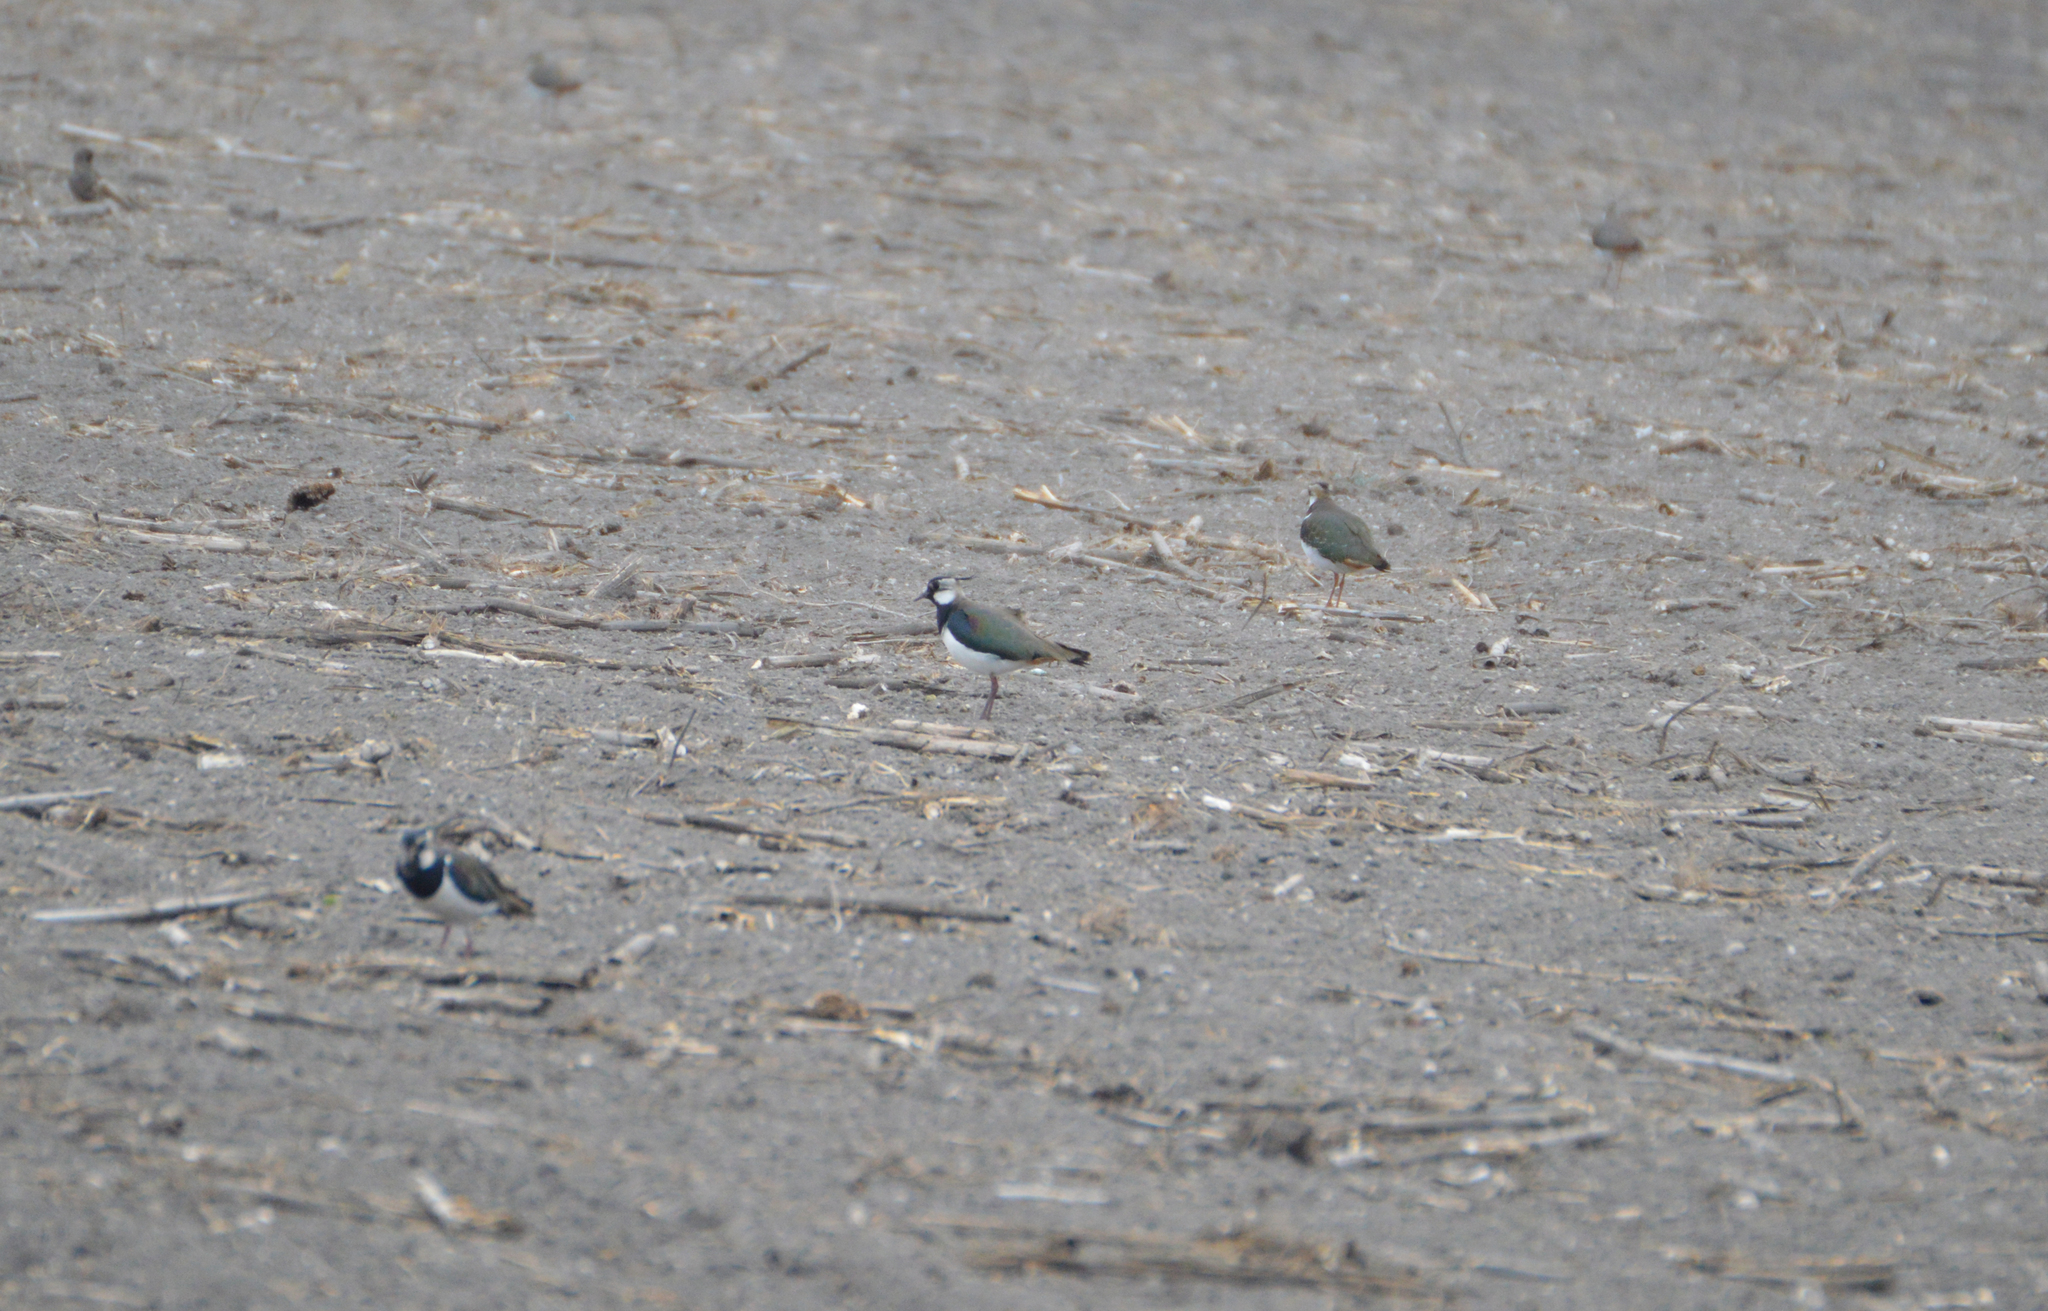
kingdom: Animalia
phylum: Chordata
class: Aves
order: Charadriiformes
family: Charadriidae
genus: Vanellus
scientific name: Vanellus vanellus
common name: Northern lapwing
